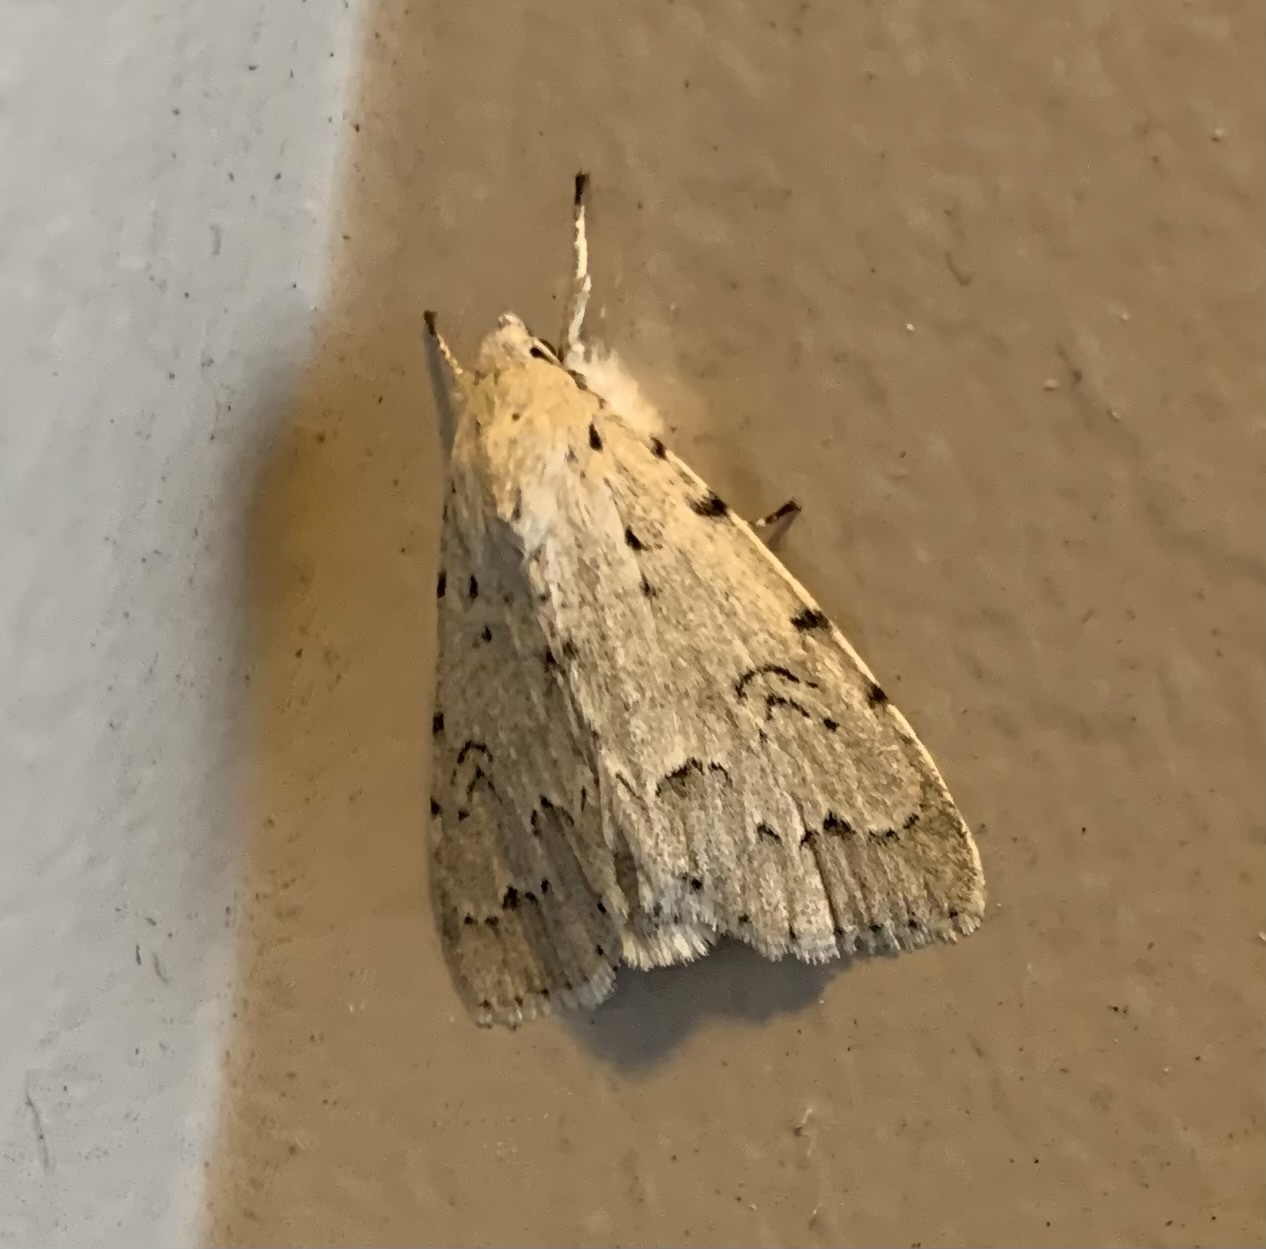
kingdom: Animalia
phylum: Arthropoda
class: Insecta
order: Lepidoptera
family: Noctuidae
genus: Acronicta
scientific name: Acronicta innotata
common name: Unmarked dagger
